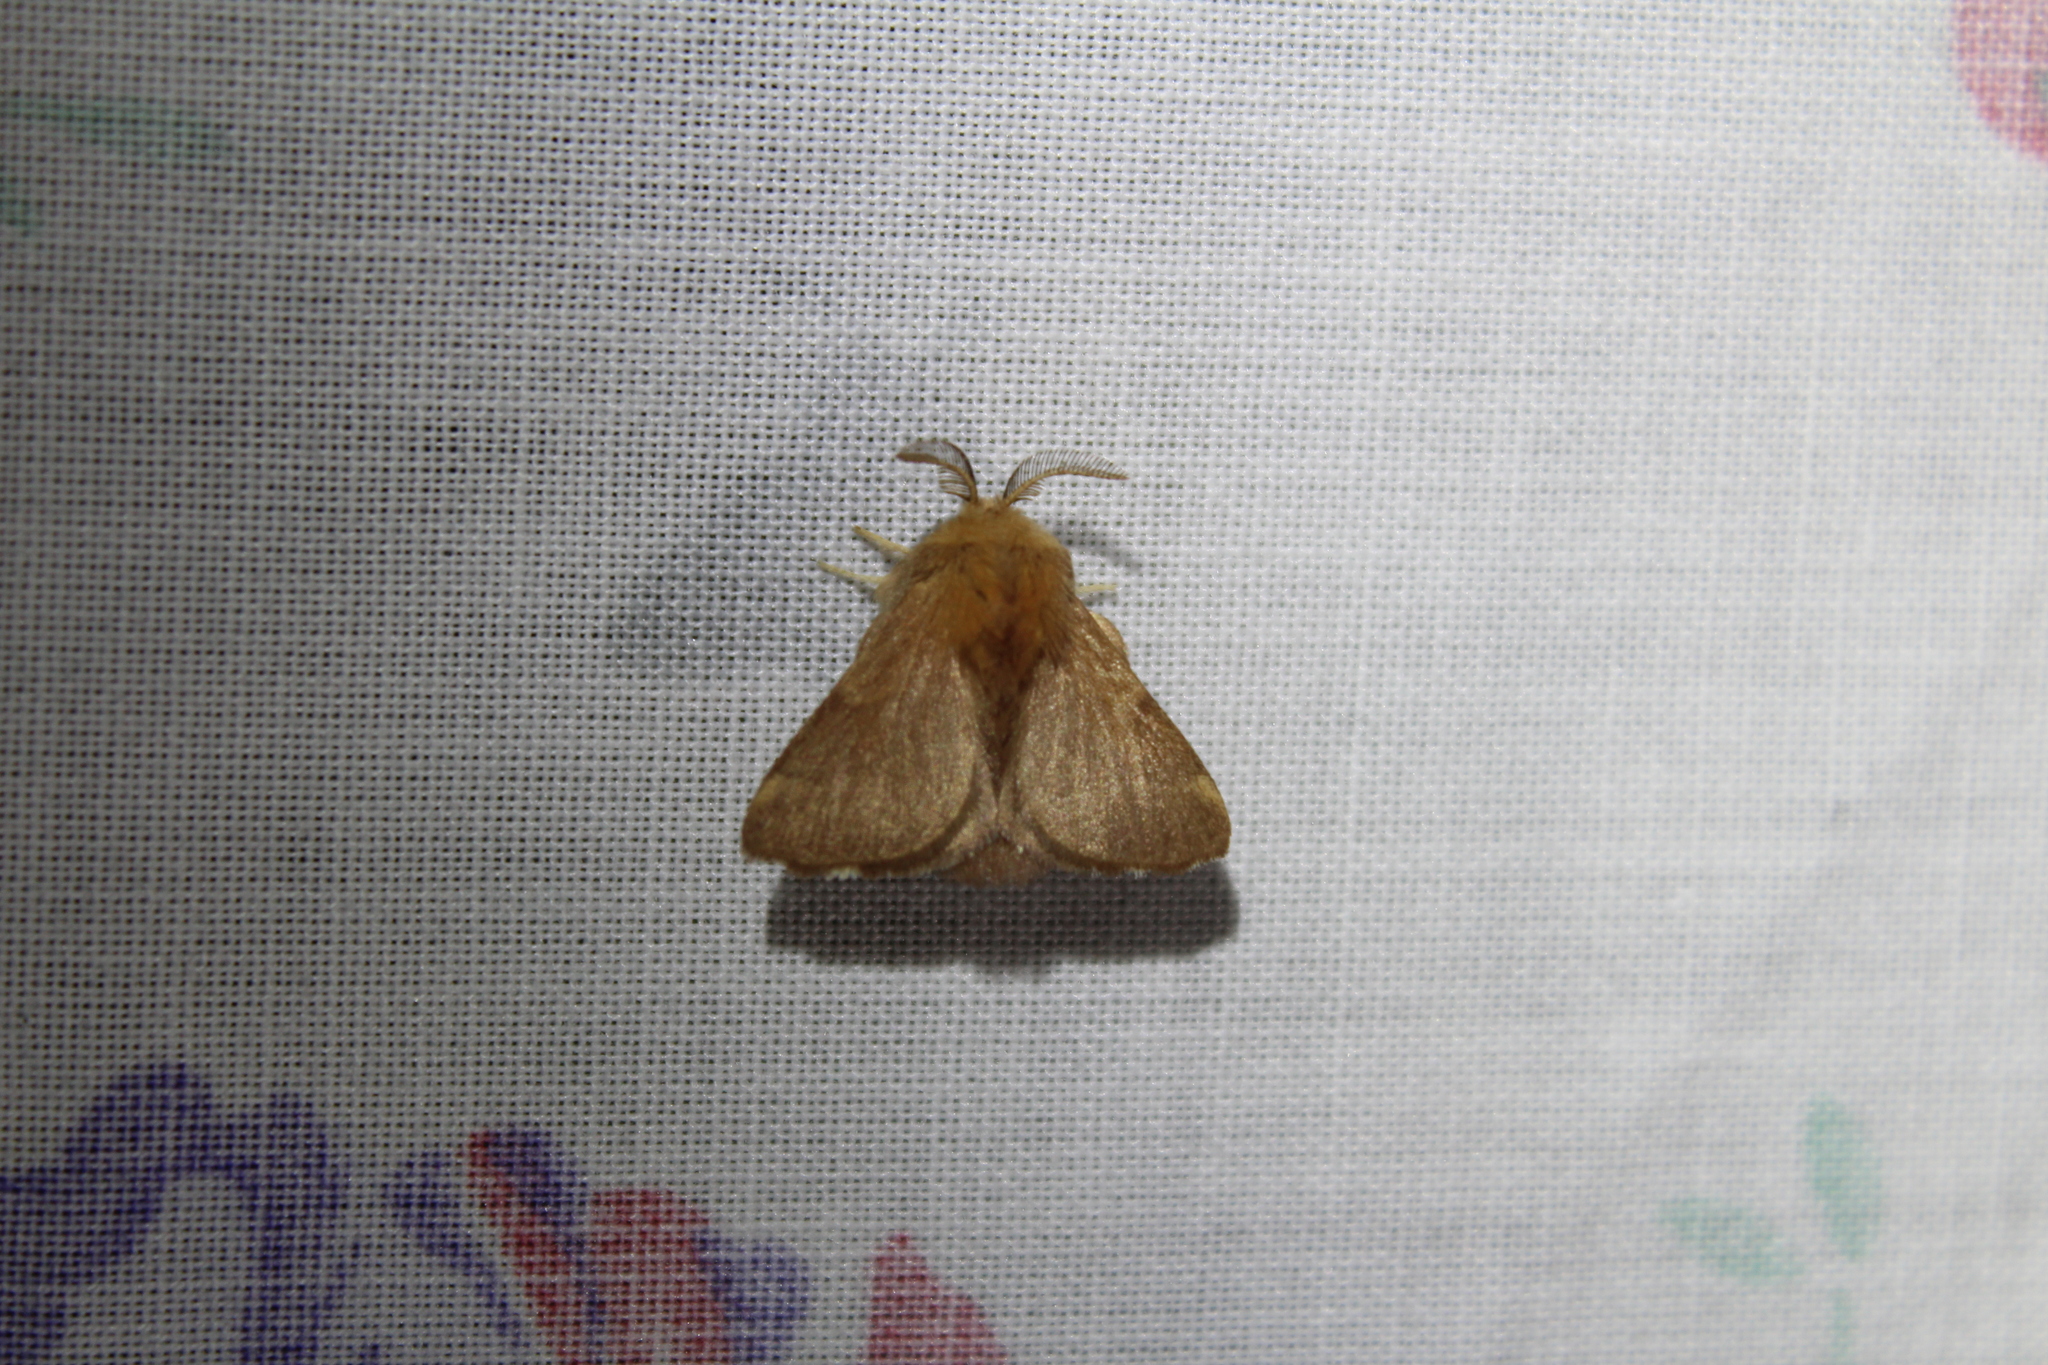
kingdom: Animalia
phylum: Arthropoda
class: Insecta
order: Lepidoptera
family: Lasiocampidae
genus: Malacosoma
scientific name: Malacosoma disstria
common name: Forest tent caterpillar
